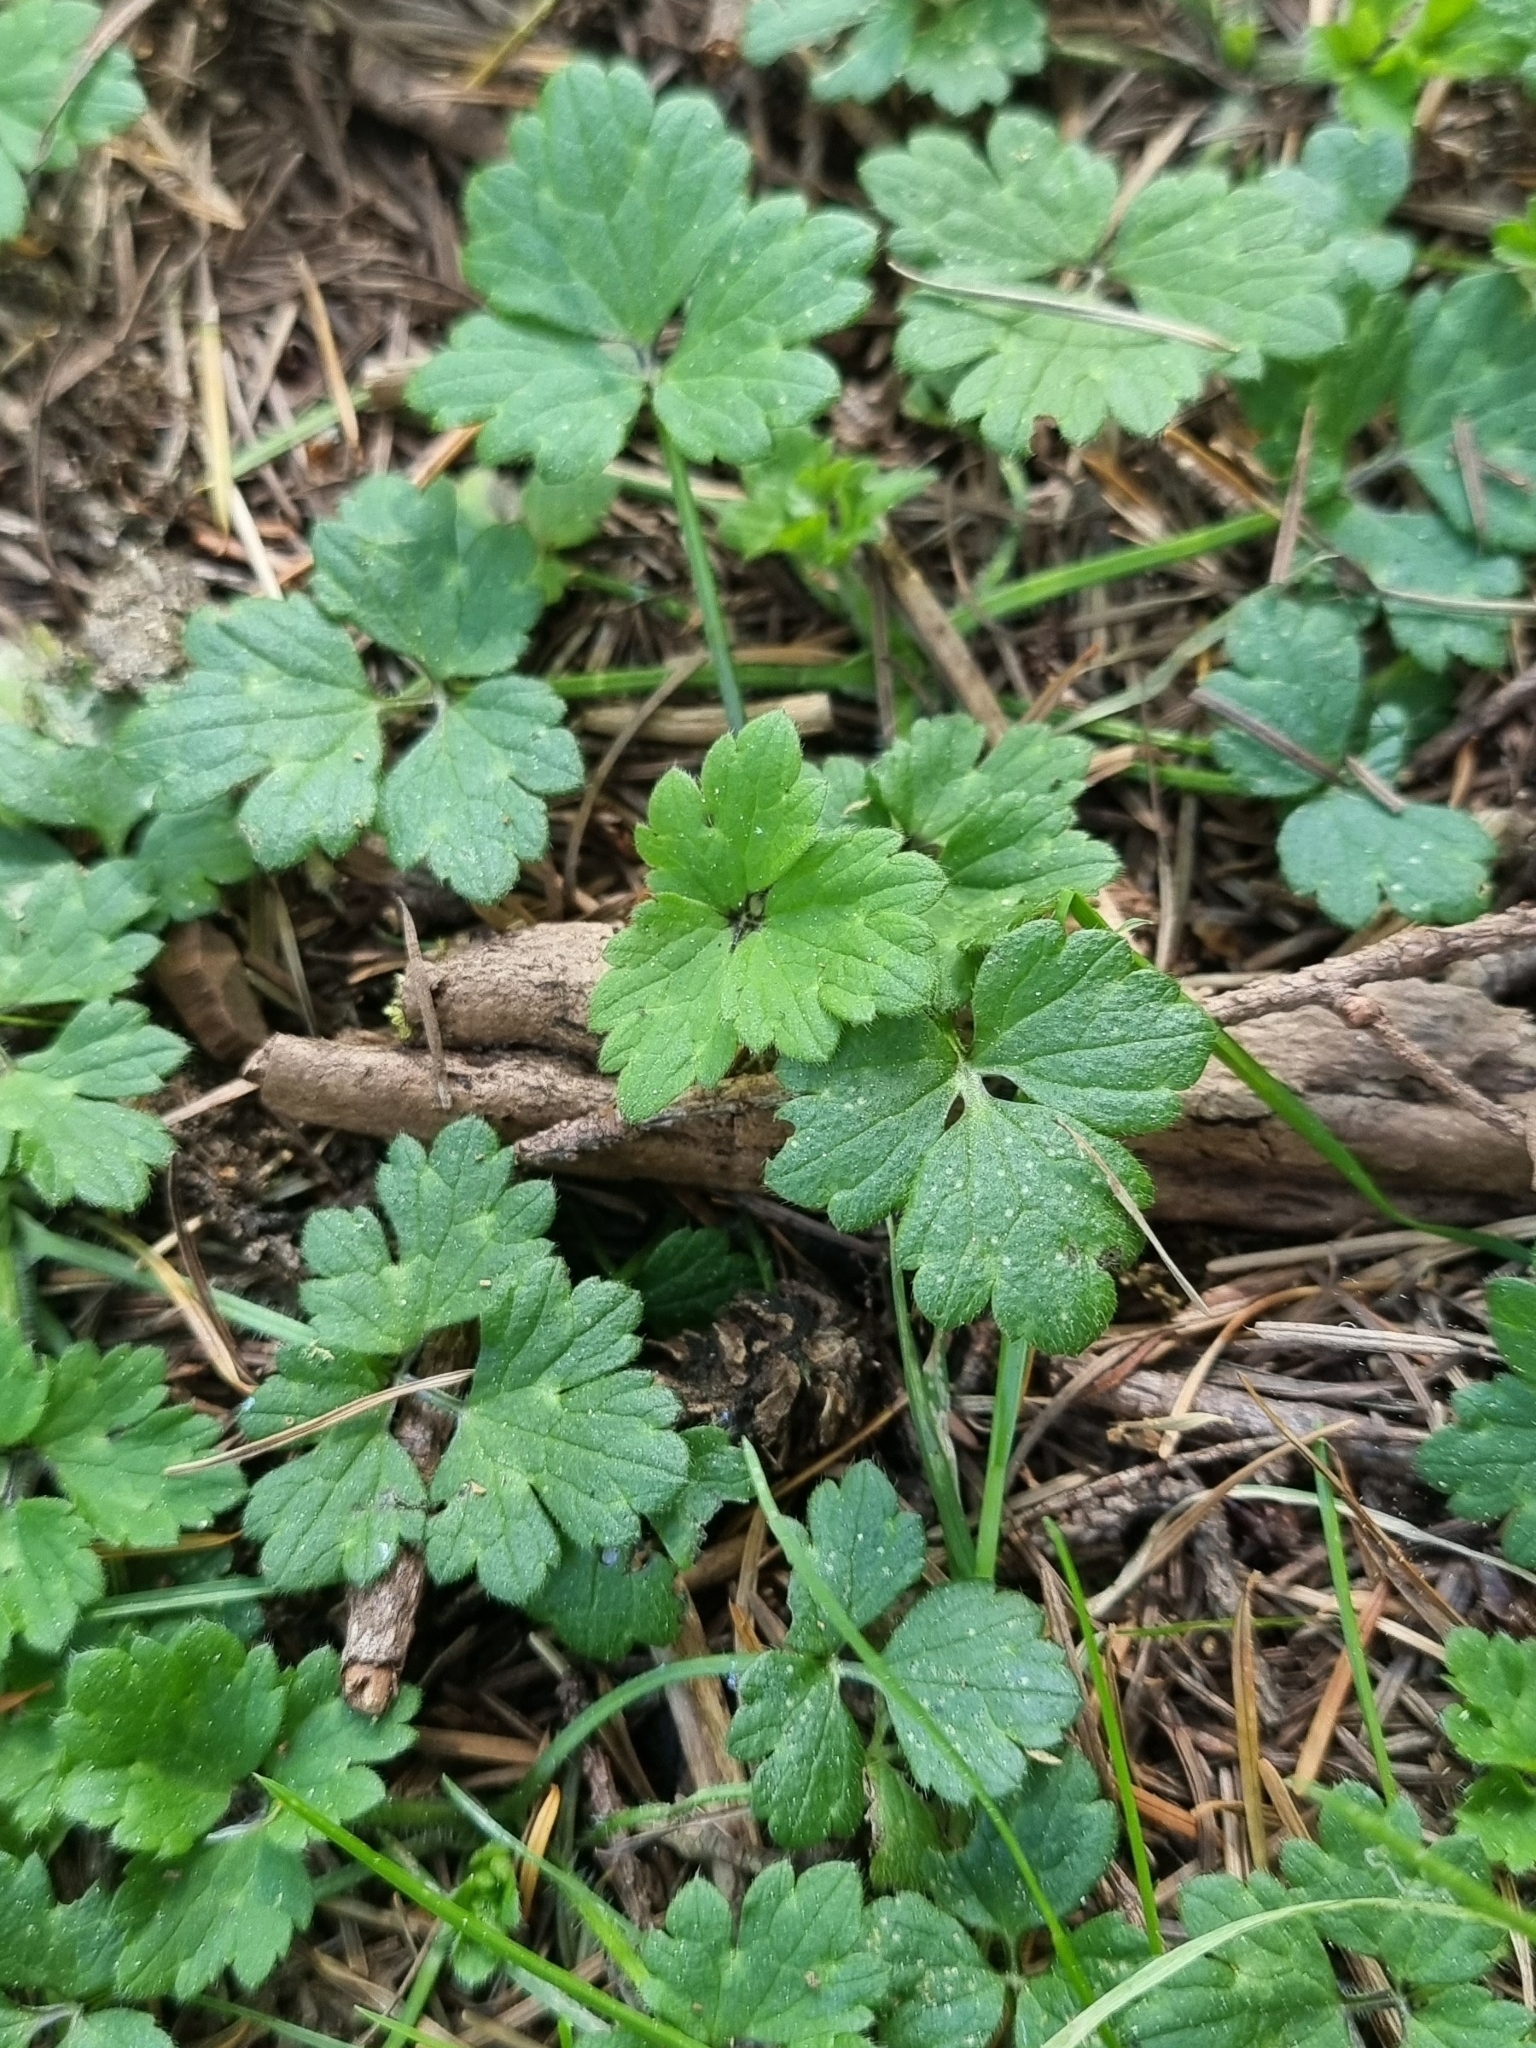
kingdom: Plantae
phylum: Tracheophyta
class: Magnoliopsida
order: Ranunculales
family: Ranunculaceae
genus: Ranunculus
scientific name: Ranunculus repens
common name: Creeping buttercup
